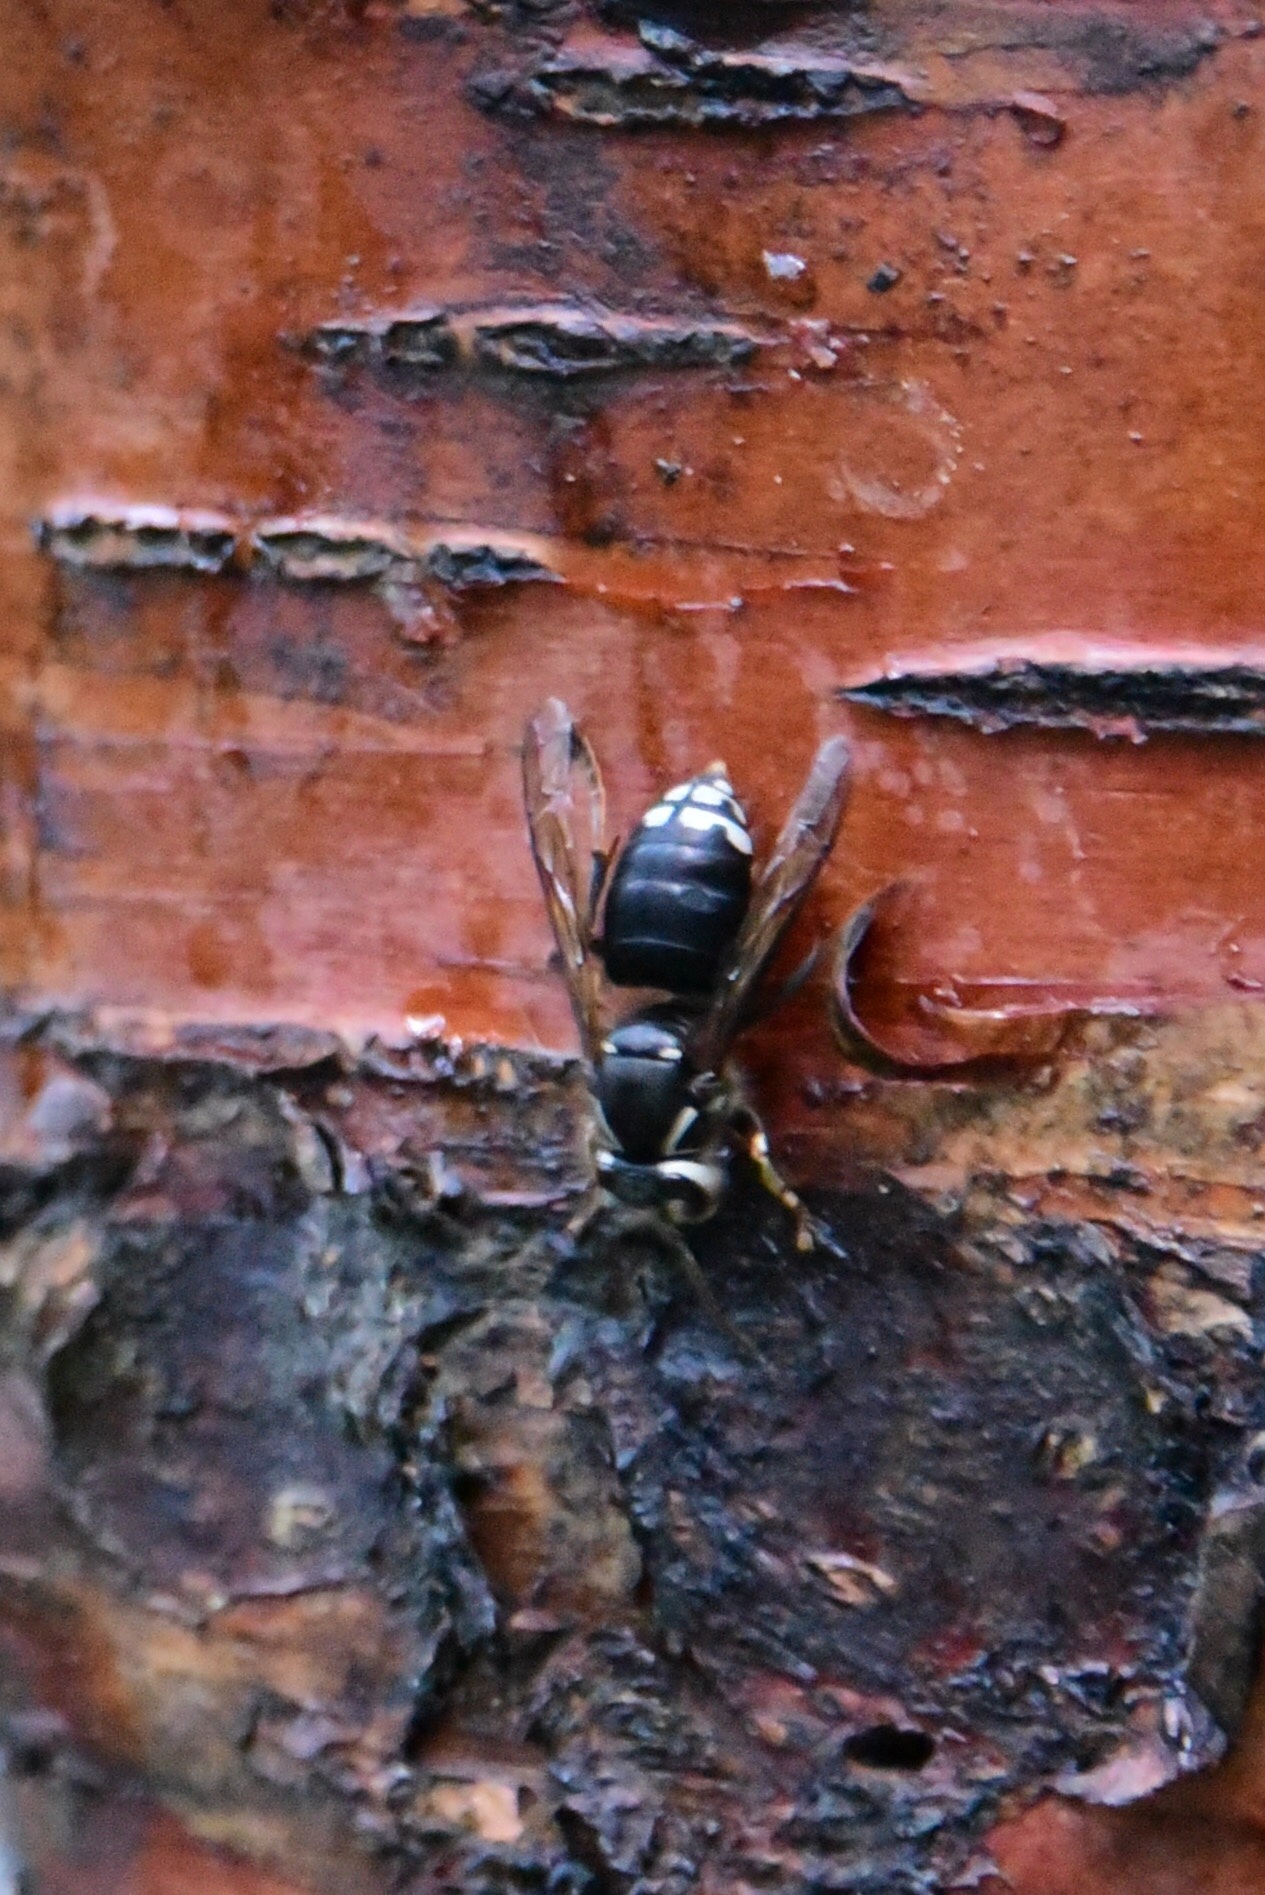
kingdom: Animalia
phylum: Arthropoda
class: Insecta
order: Hymenoptera
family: Vespidae
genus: Dolichovespula
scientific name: Dolichovespula maculata
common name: Bald-faced hornet
